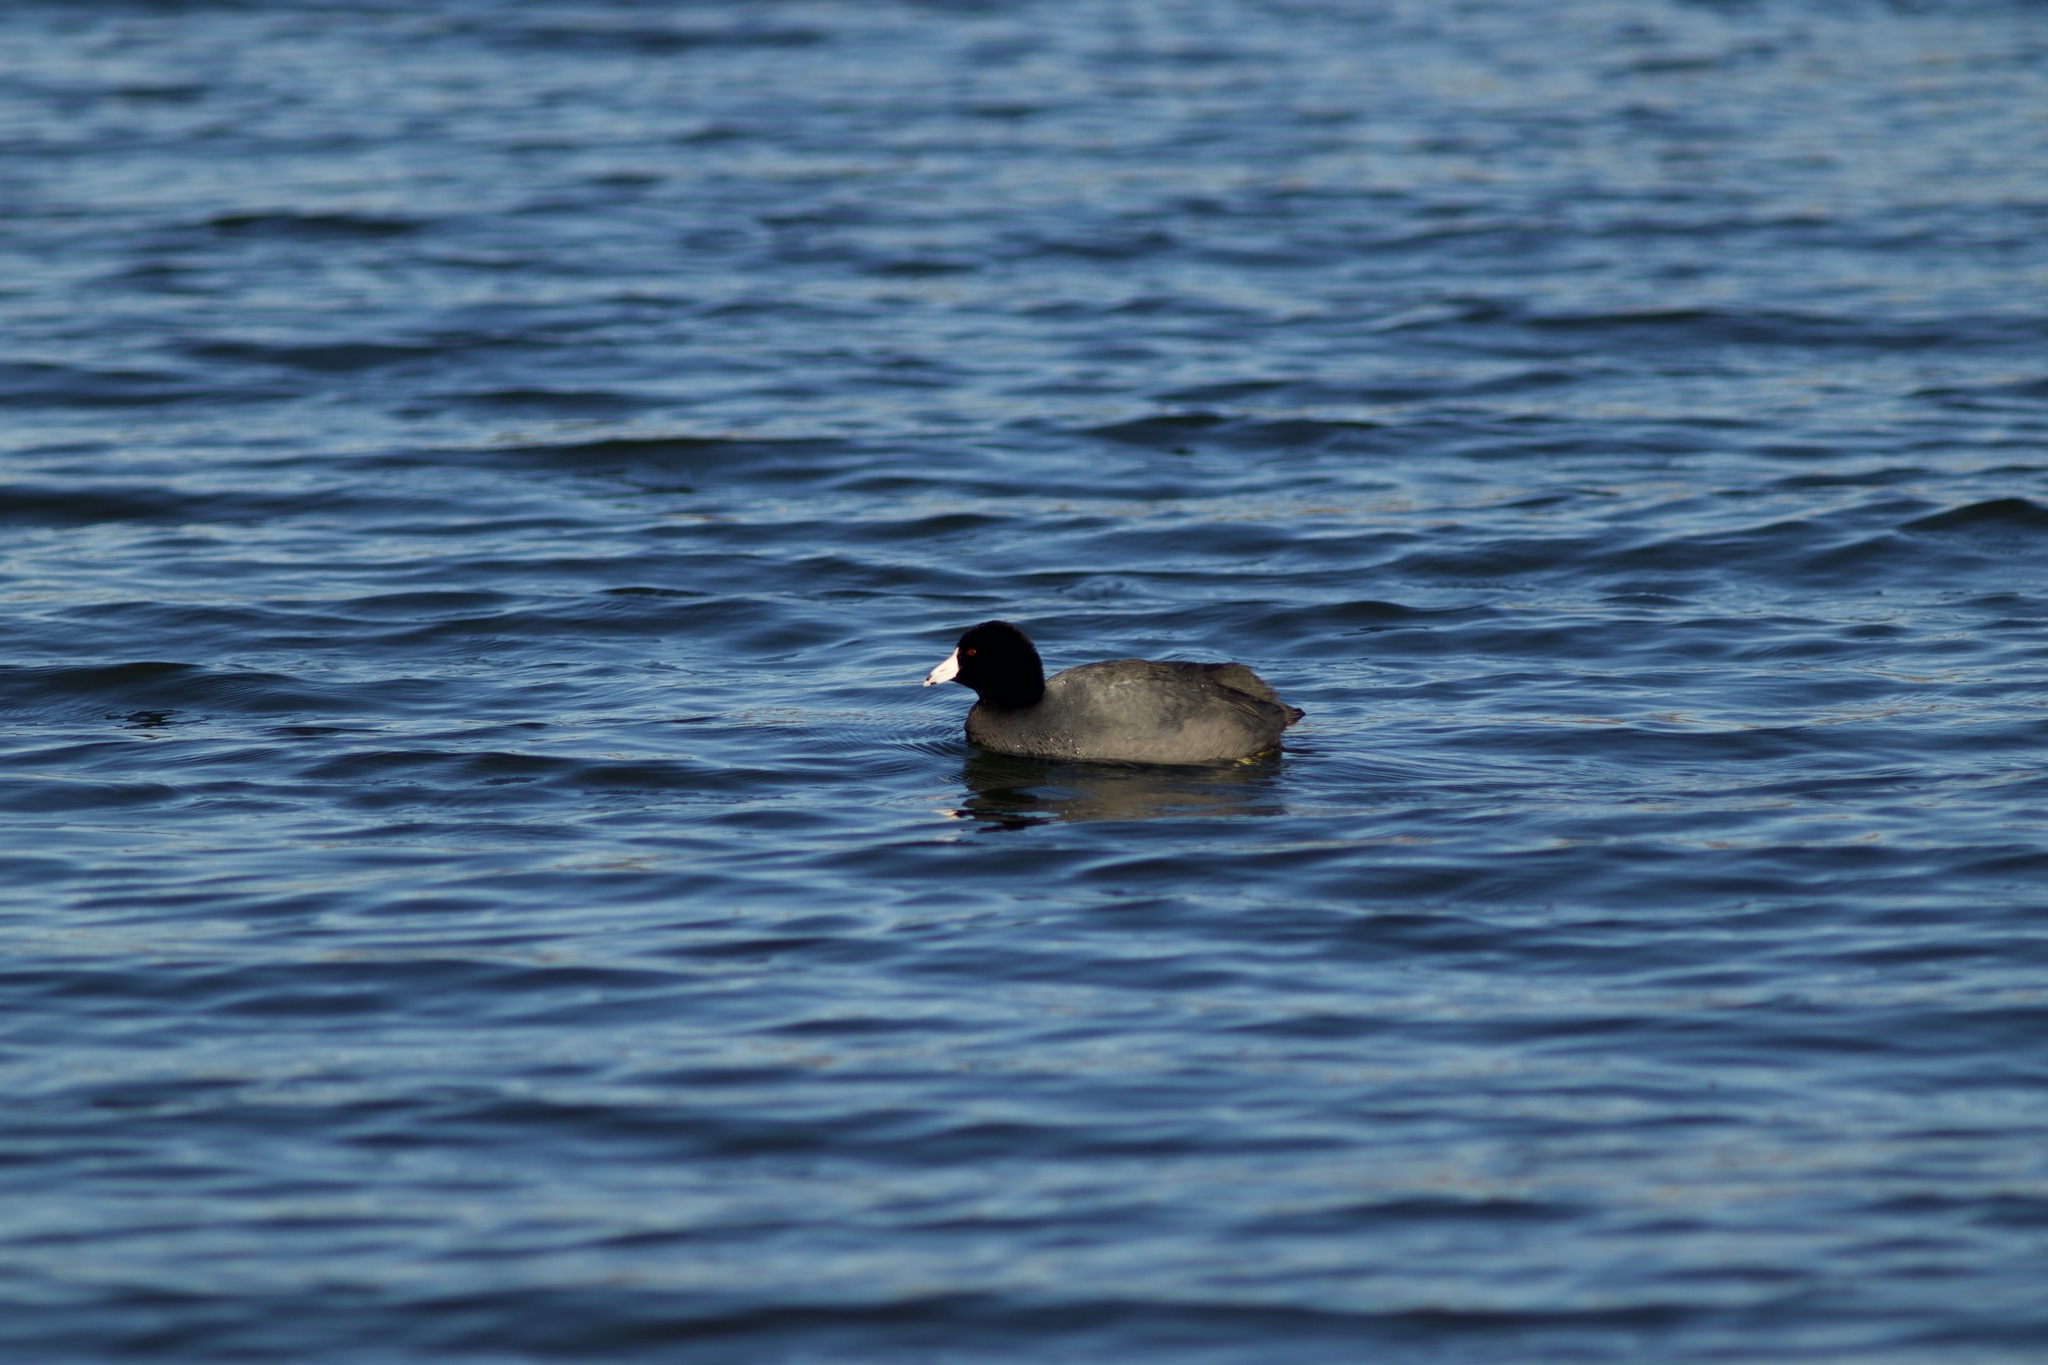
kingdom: Animalia
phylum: Chordata
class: Aves
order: Gruiformes
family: Rallidae
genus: Fulica
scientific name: Fulica americana
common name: American coot
